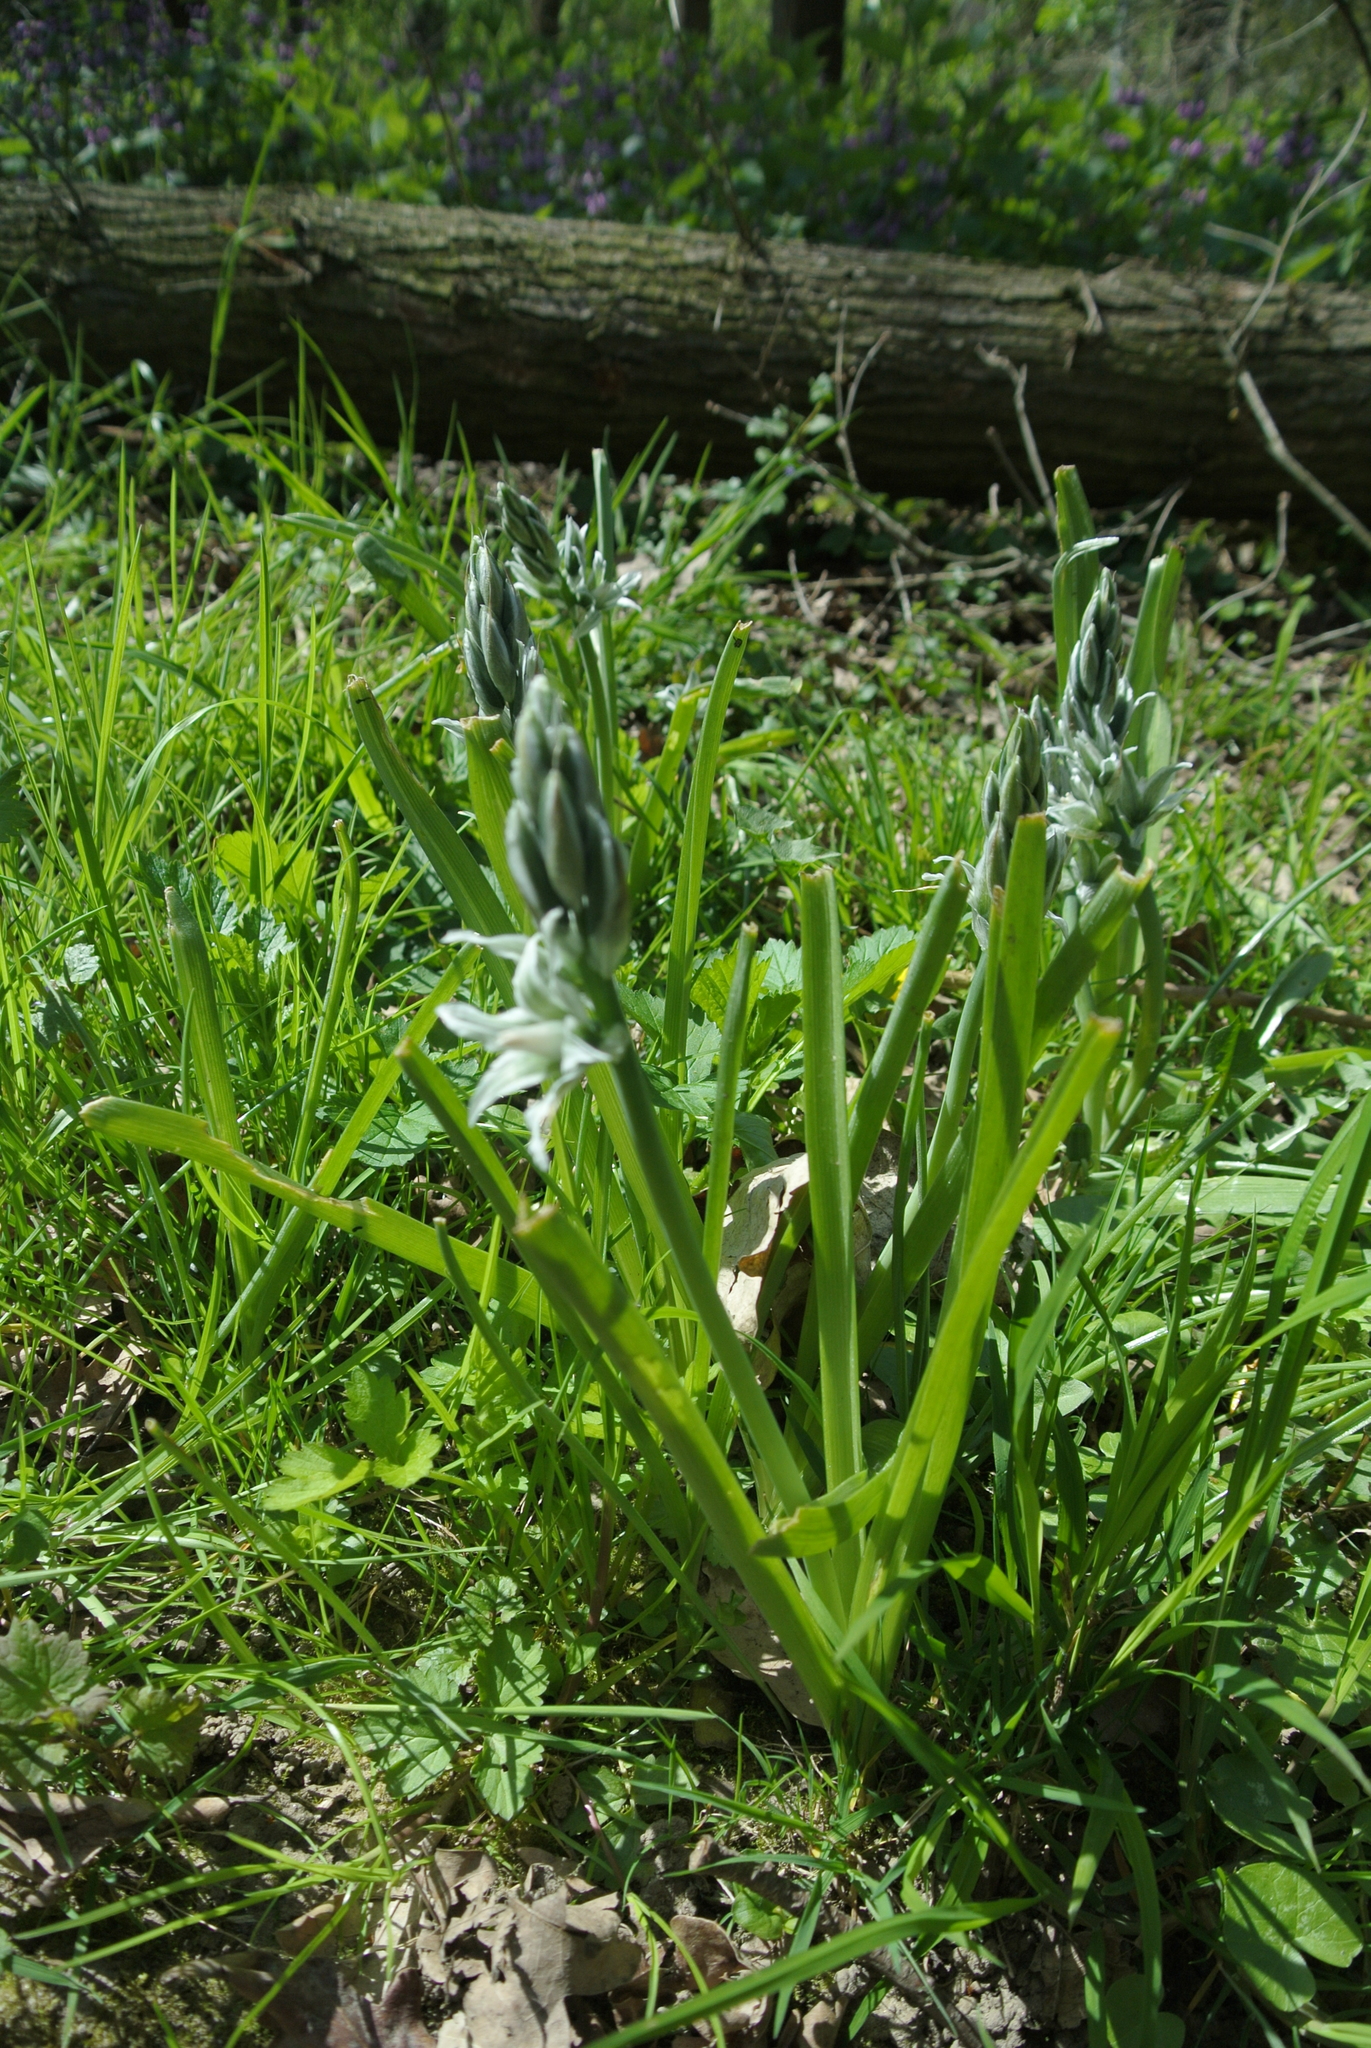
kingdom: Plantae
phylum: Tracheophyta
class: Liliopsida
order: Asparagales
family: Asparagaceae
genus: Ornithogalum
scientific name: Ornithogalum boucheanum
